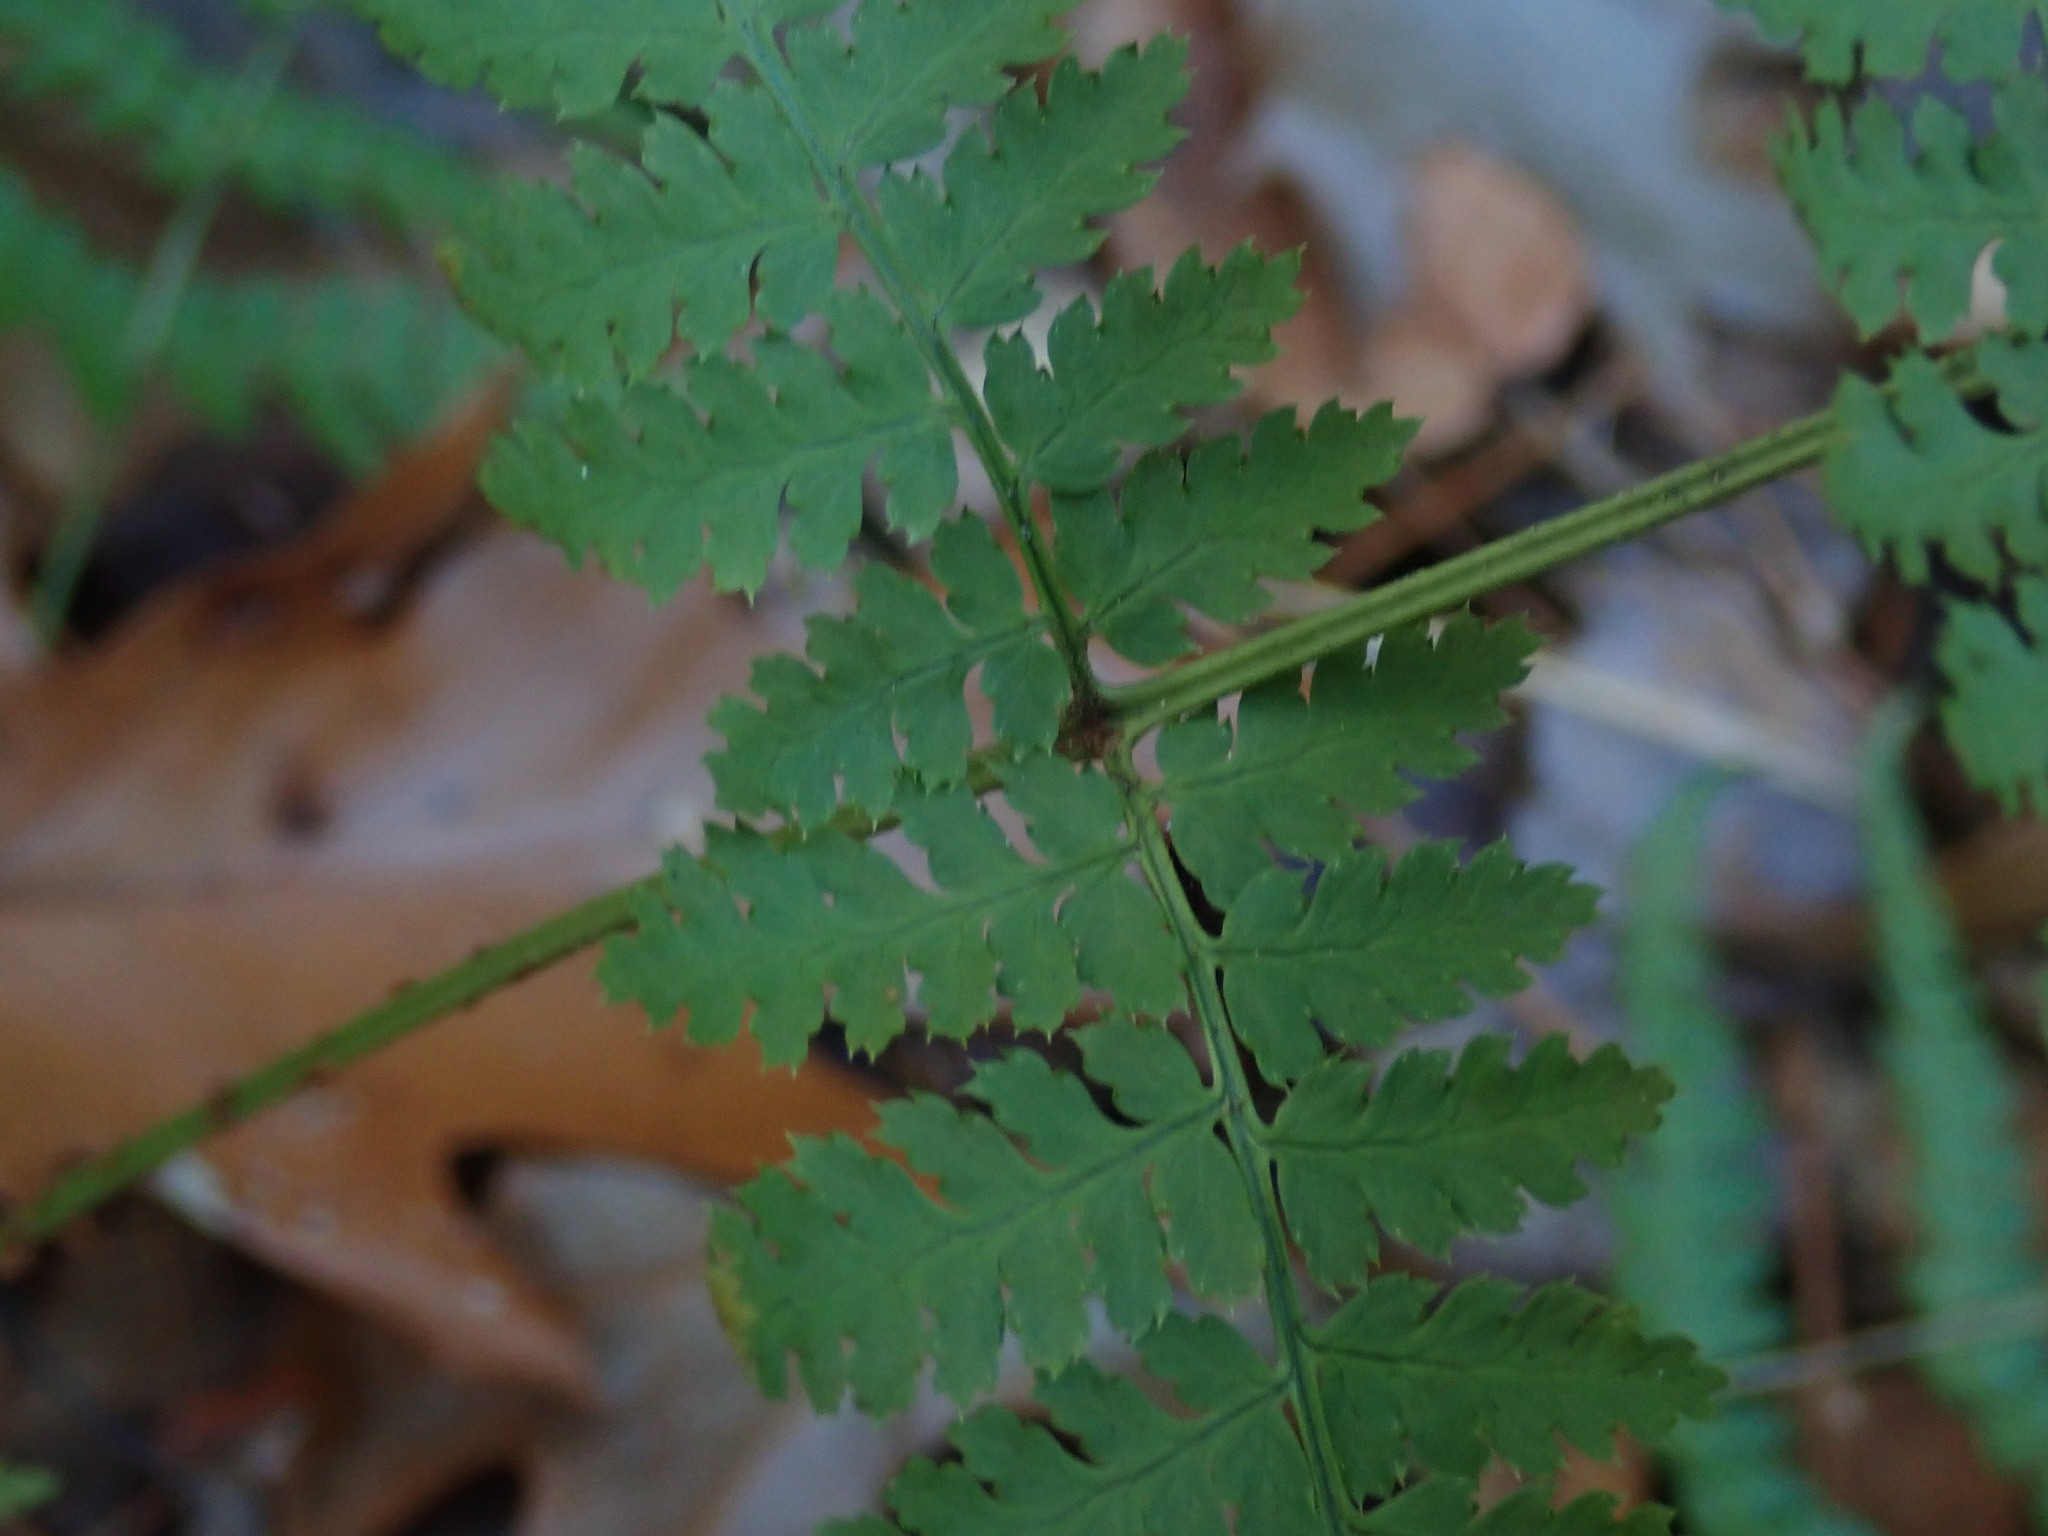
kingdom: Plantae
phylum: Tracheophyta
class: Polypodiopsida
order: Polypodiales
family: Dryopteridaceae
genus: Dryopteris
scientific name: Dryopteris intermedia
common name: Evergreen wood fern
